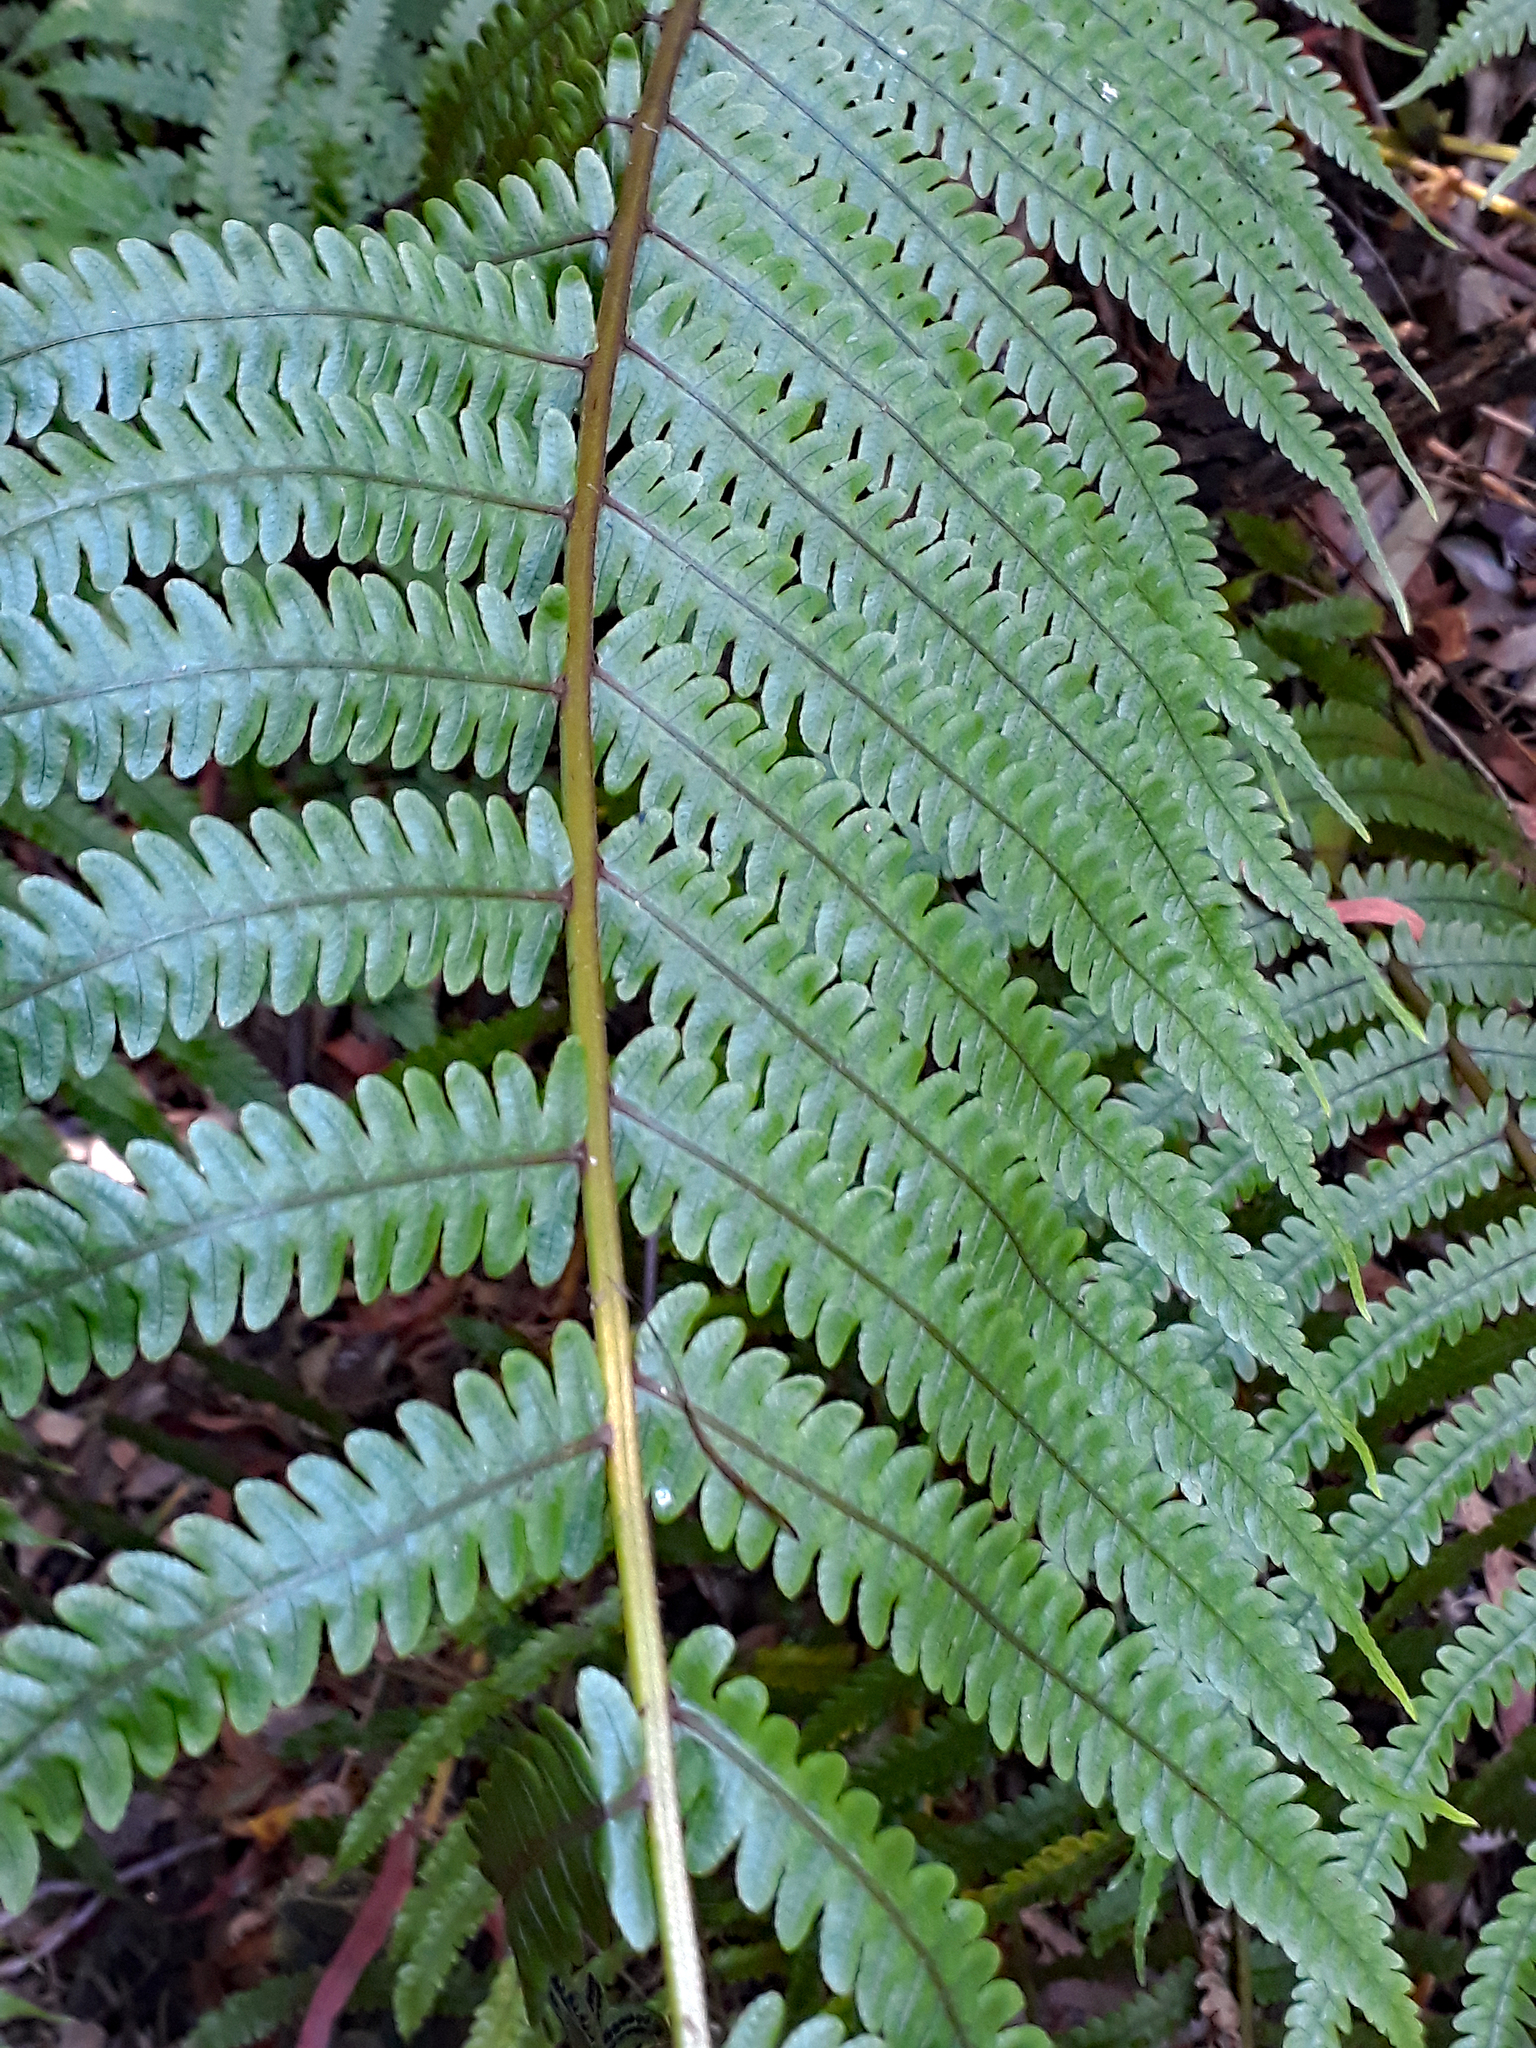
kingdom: Plantae
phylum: Tracheophyta
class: Polypodiopsida
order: Polypodiales
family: Thelypteridaceae
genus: Pakau
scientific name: Pakau pennigera
